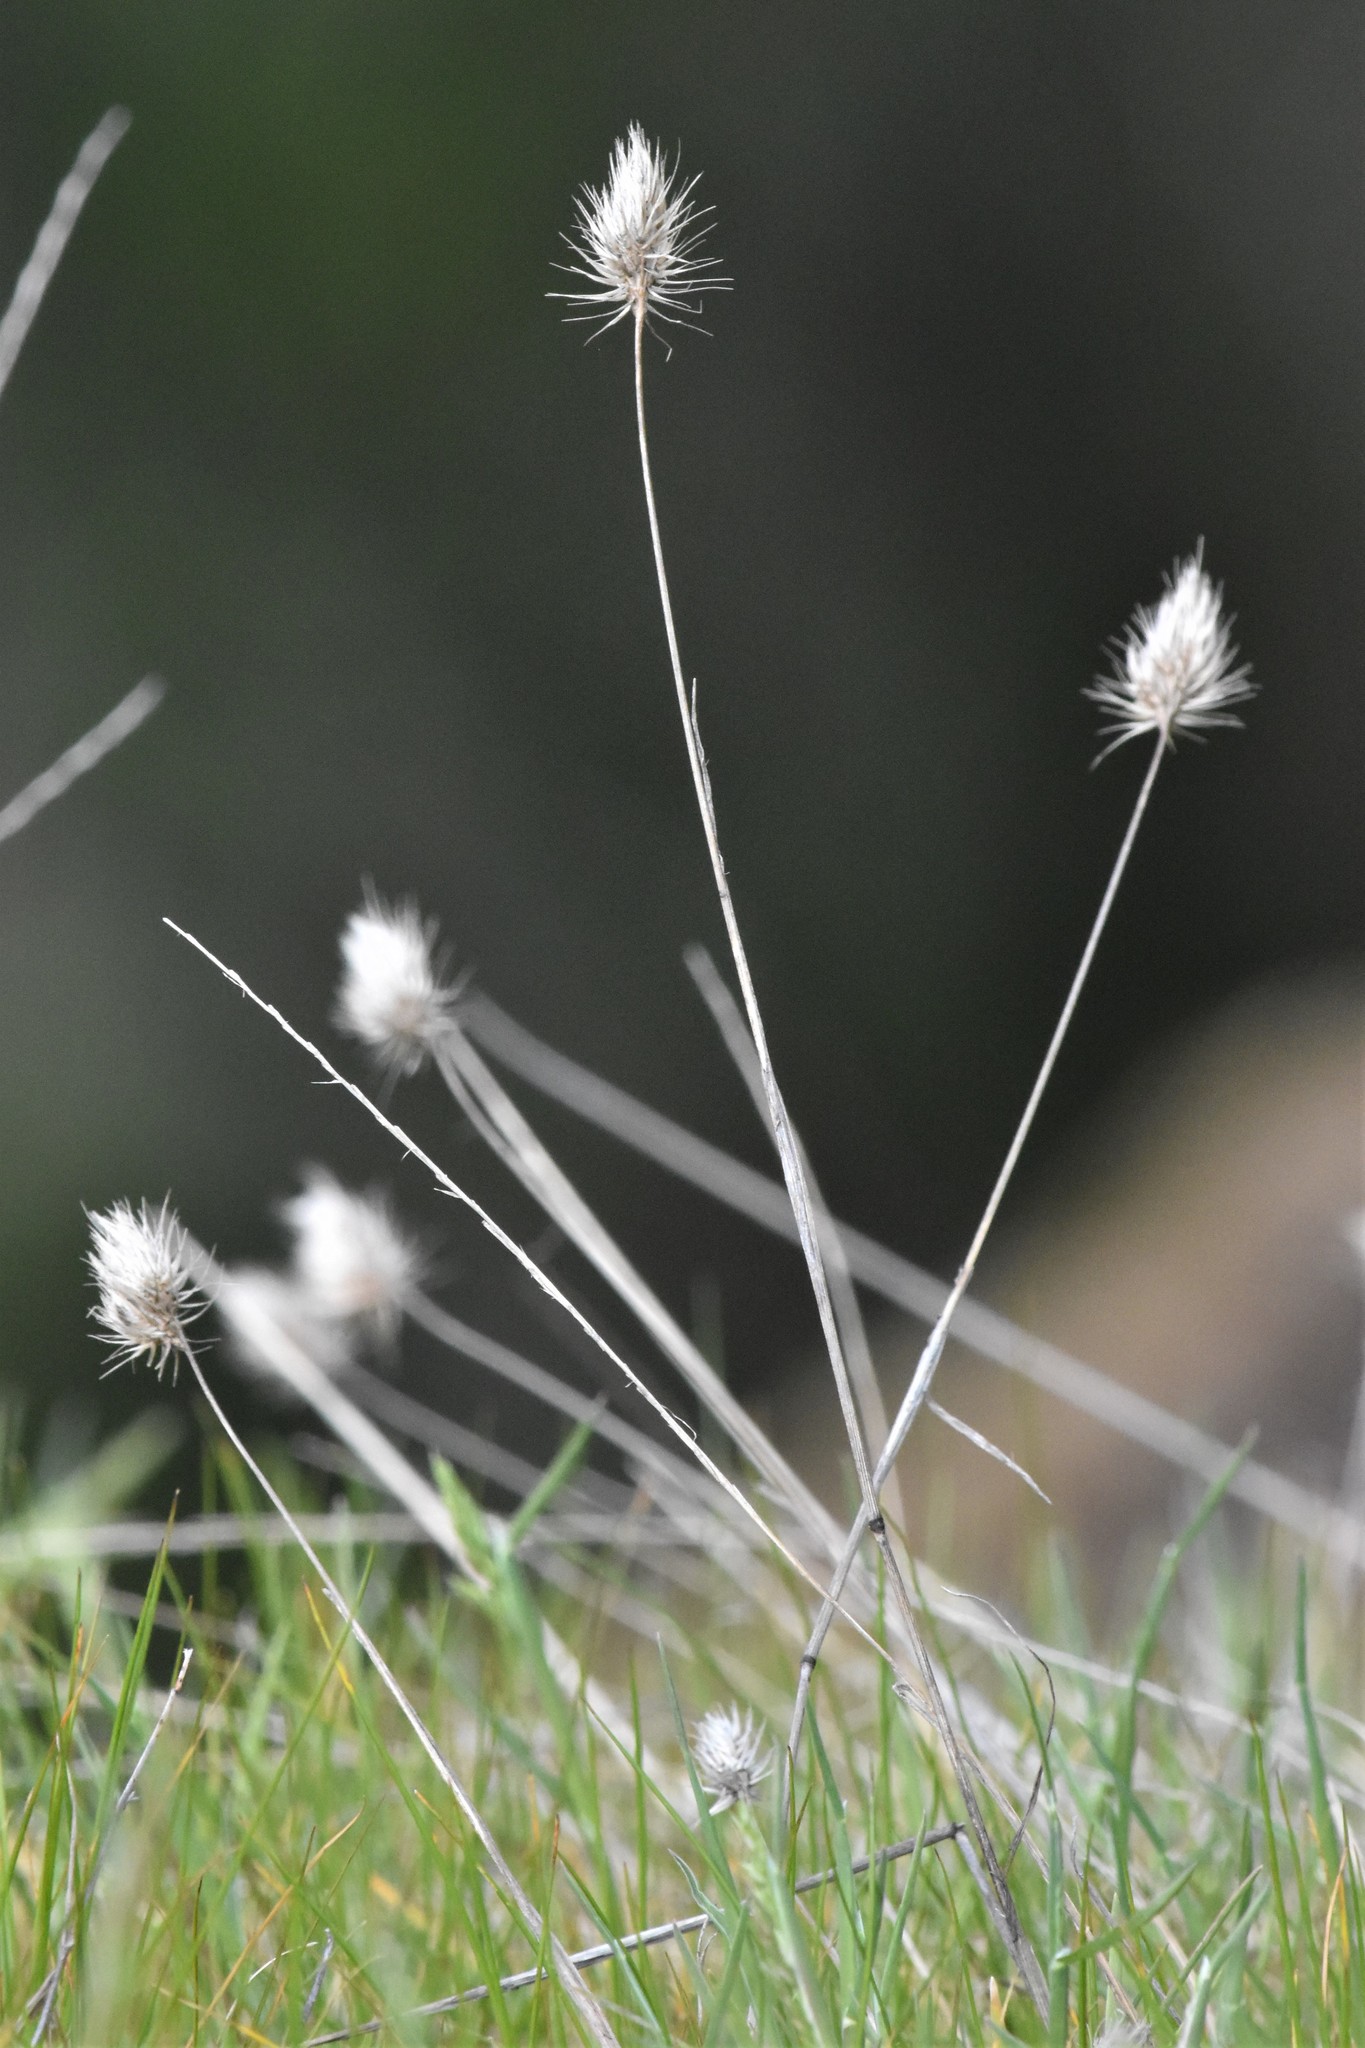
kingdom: Plantae
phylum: Tracheophyta
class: Liliopsida
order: Poales
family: Poaceae
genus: Cynosurus
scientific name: Cynosurus echinatus
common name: Rough dog's-tail
